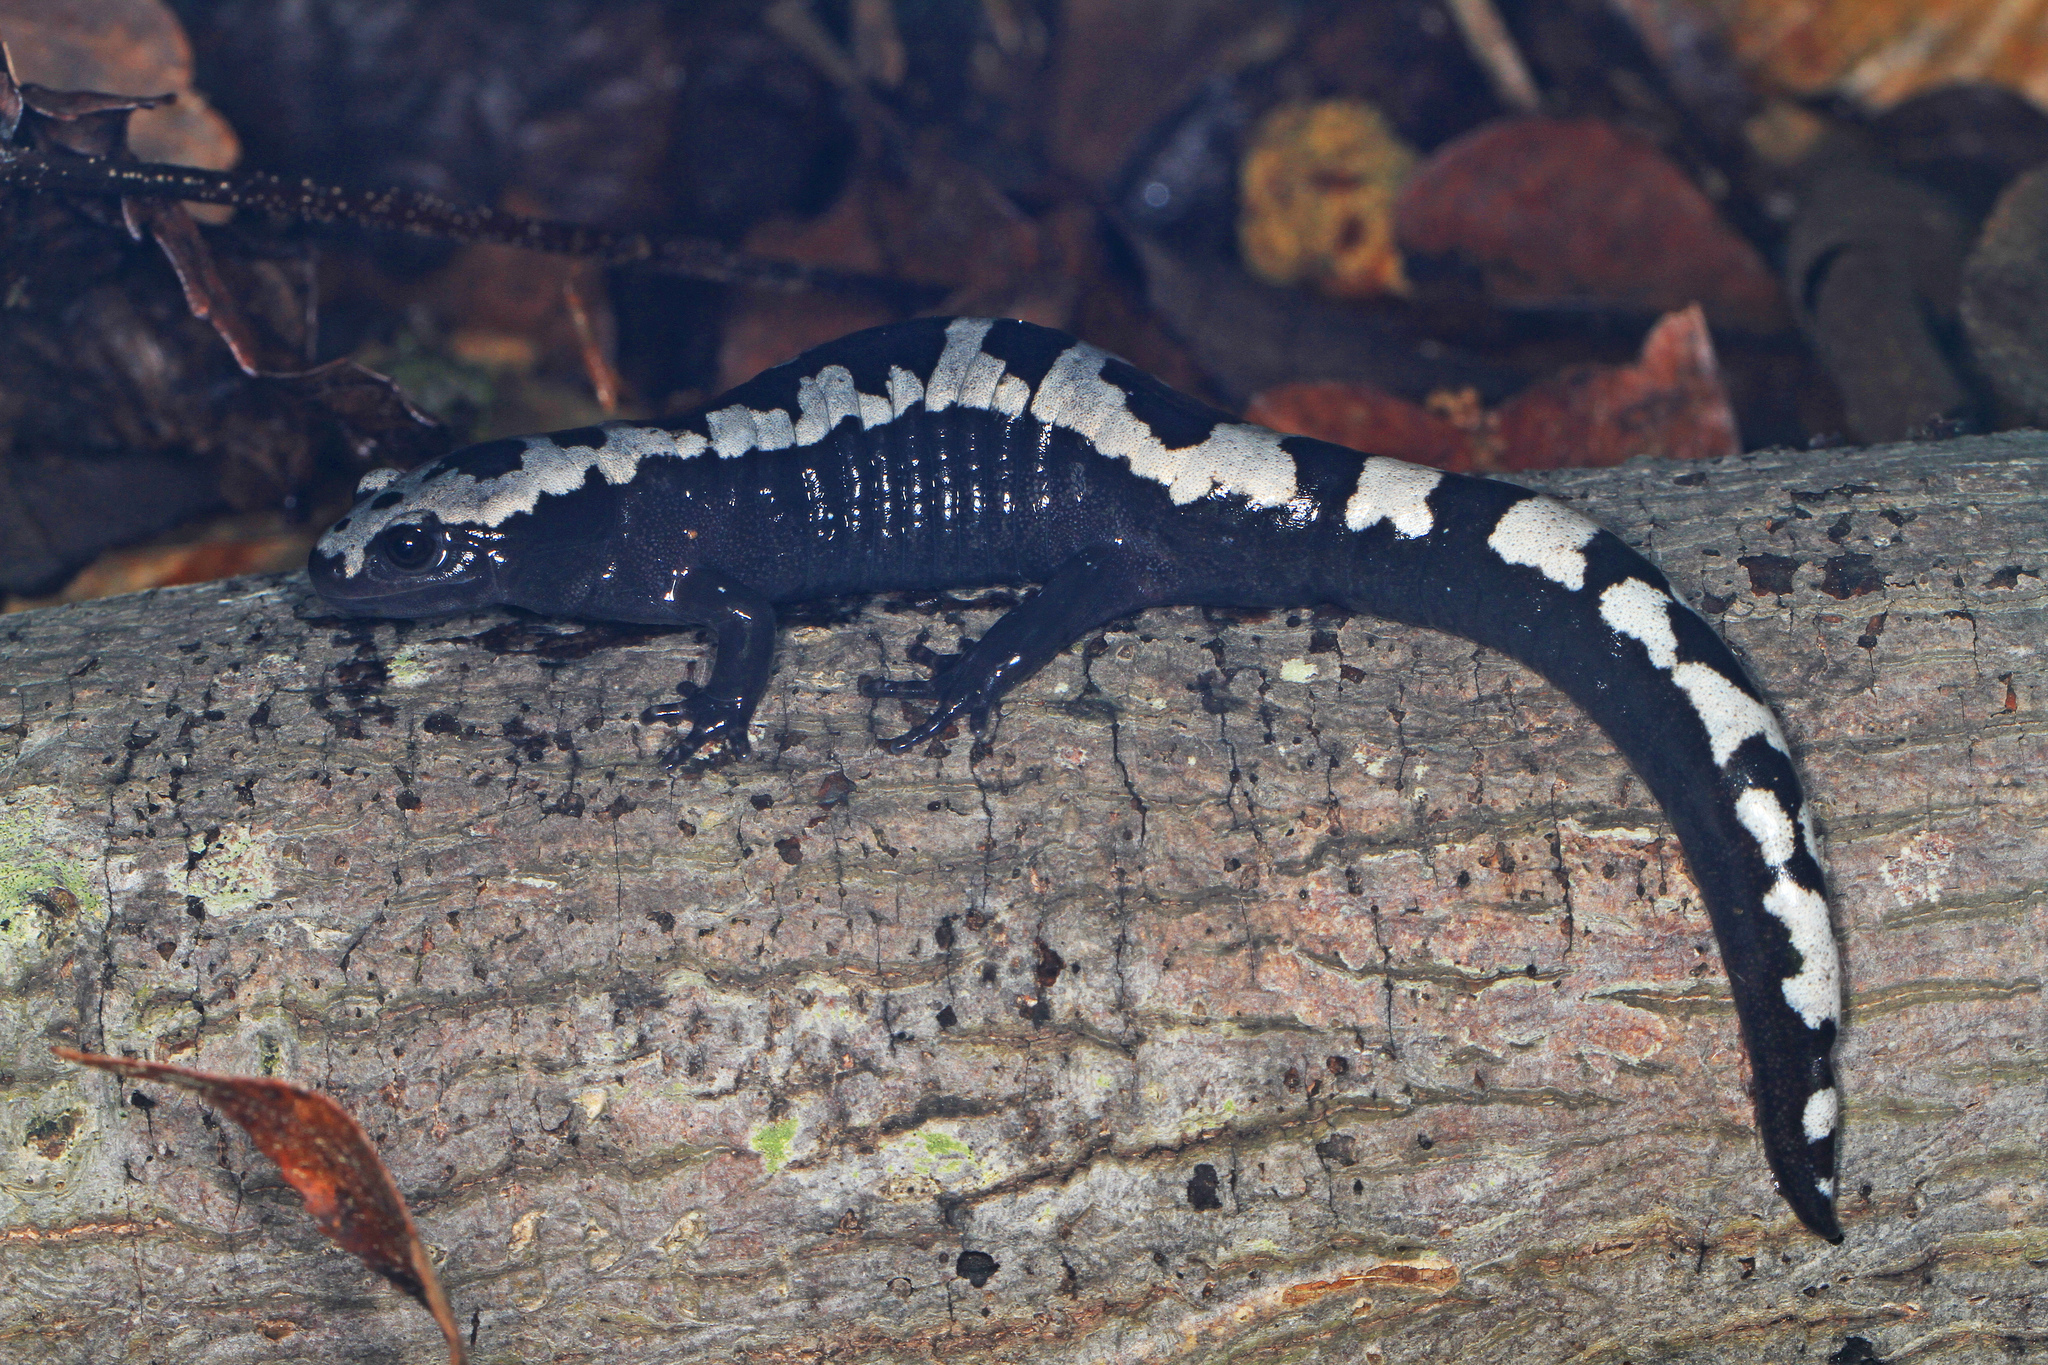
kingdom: Animalia
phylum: Chordata
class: Amphibia
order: Caudata
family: Ambystomatidae
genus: Ambystoma
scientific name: Ambystoma opacum
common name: Marbled salamander
